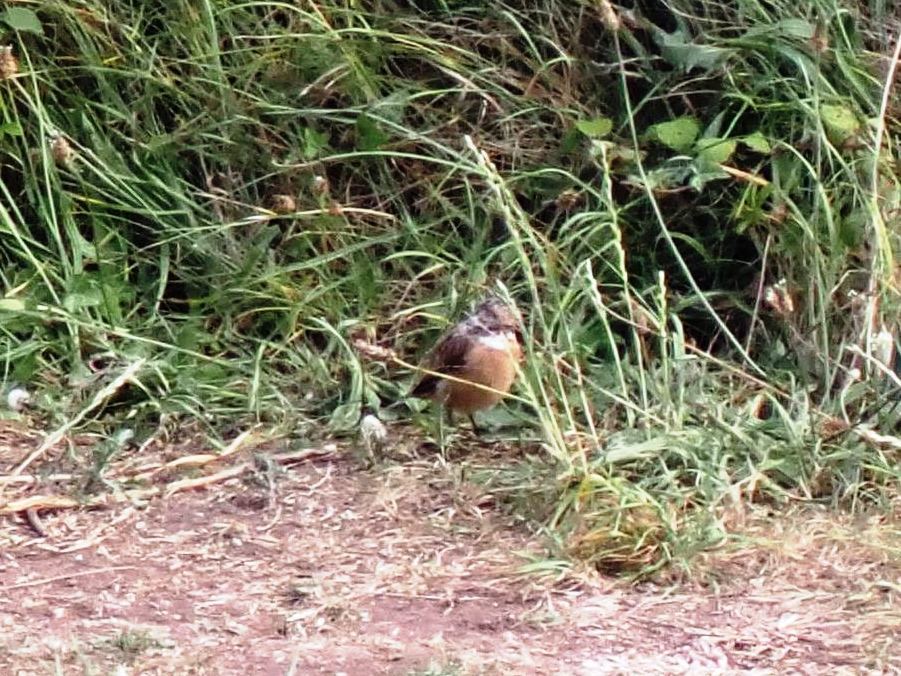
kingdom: Animalia
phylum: Chordata
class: Aves
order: Passeriformes
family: Muscicapidae
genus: Saxicola
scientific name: Saxicola rubicola
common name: European stonechat
